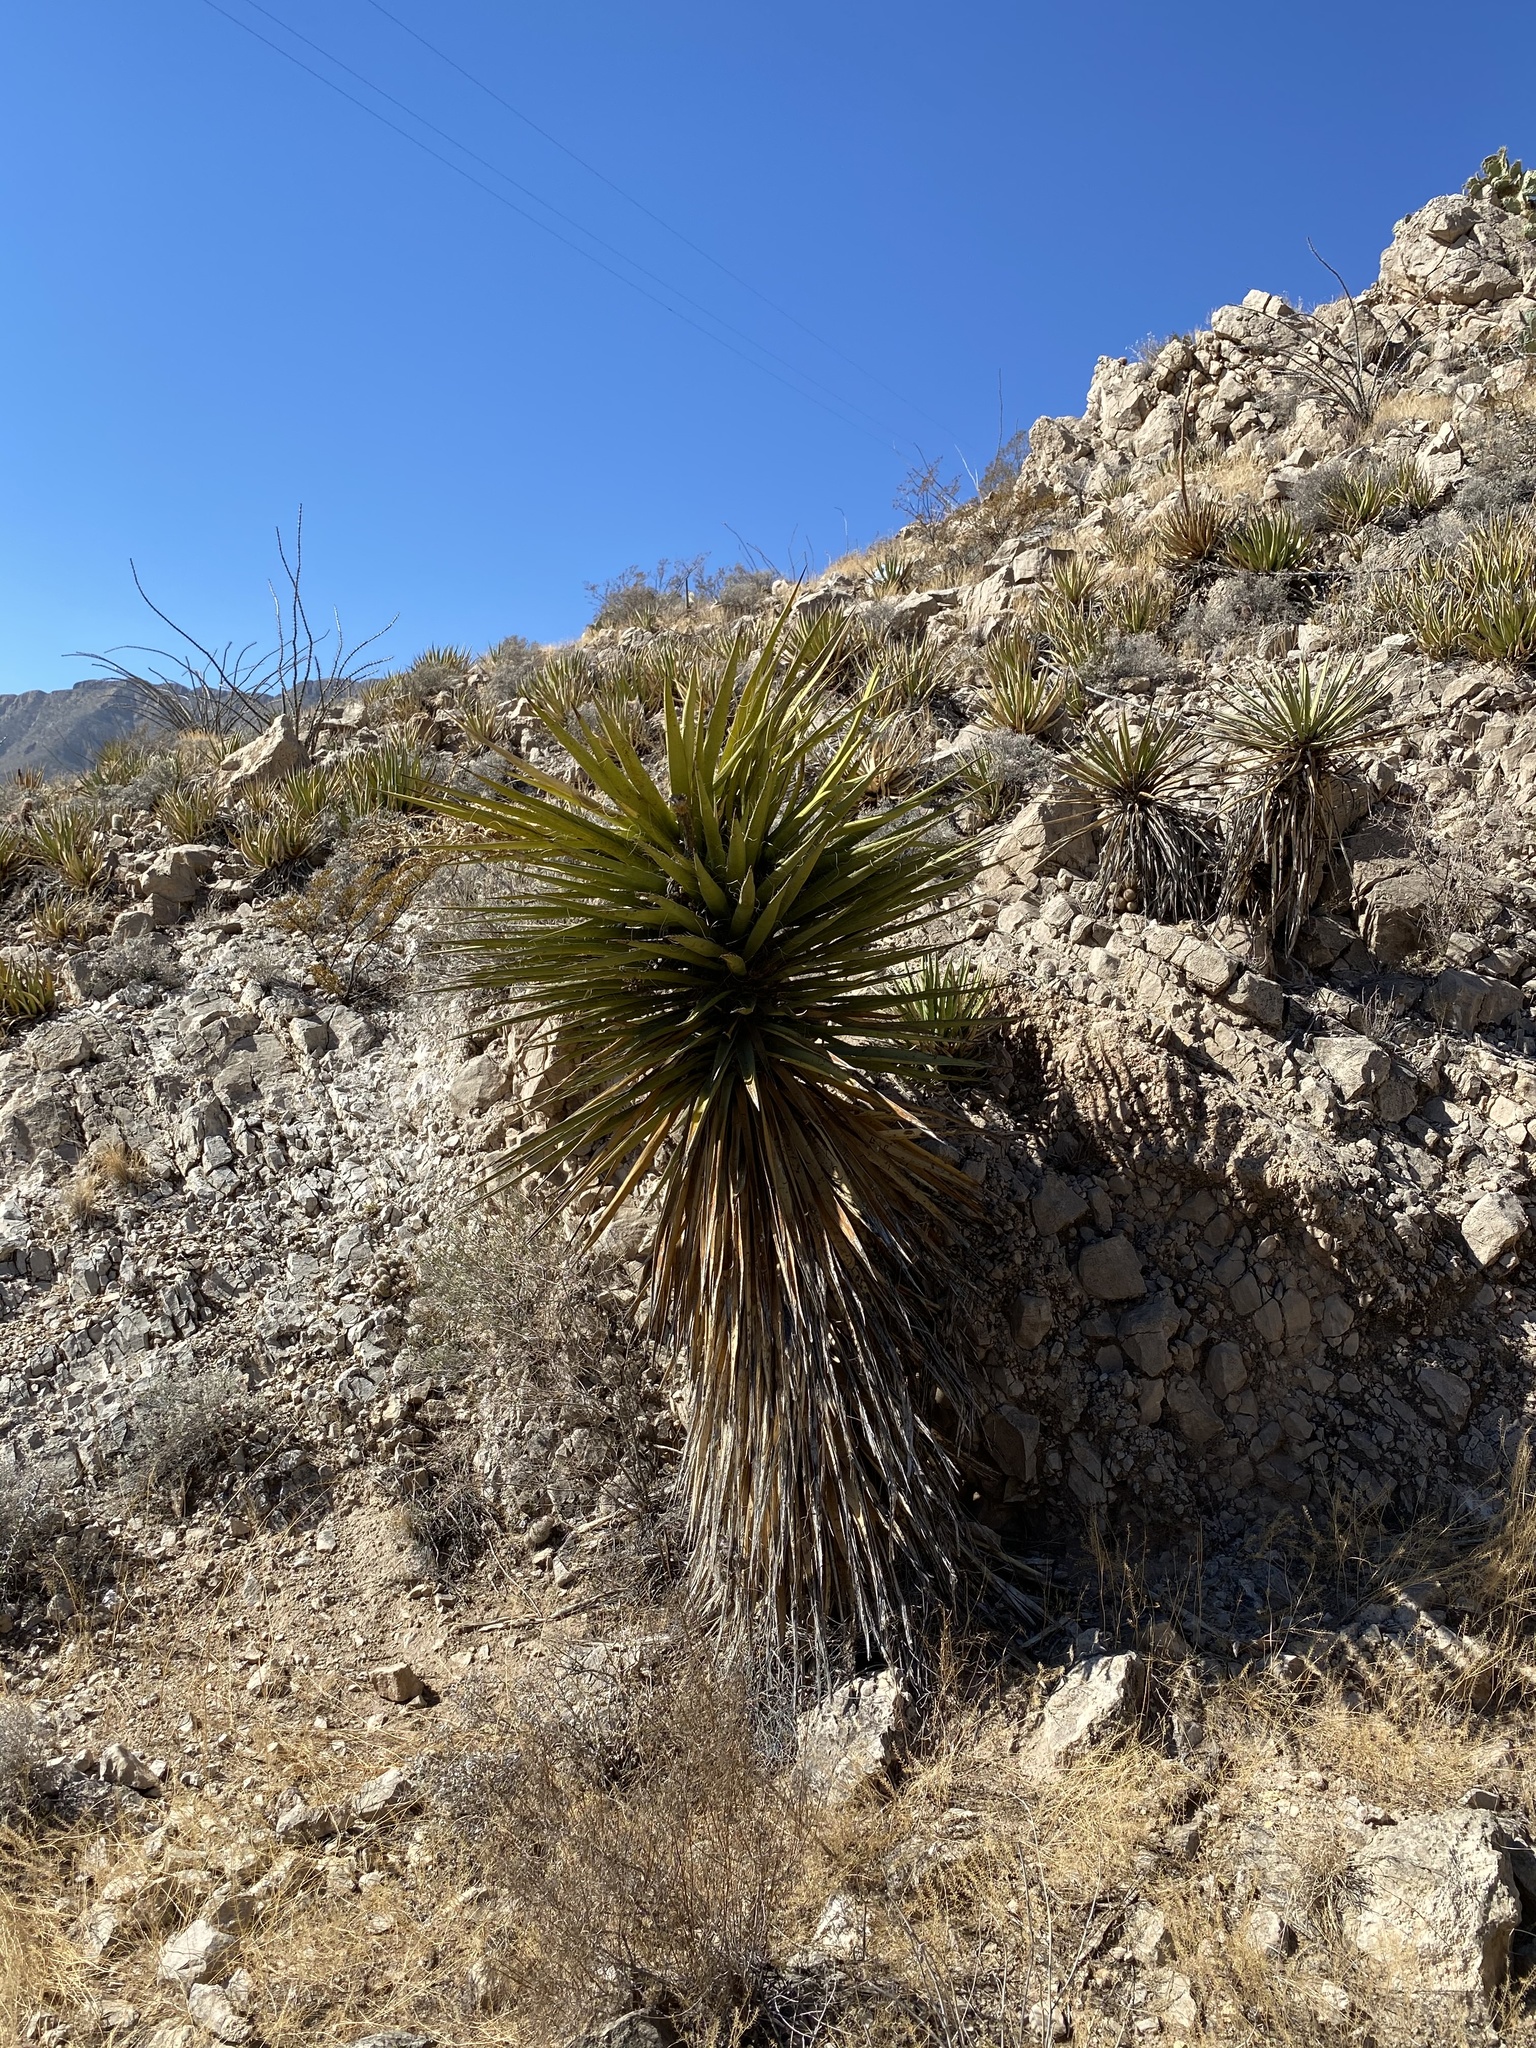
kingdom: Plantae
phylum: Tracheophyta
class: Liliopsida
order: Asparagales
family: Asparagaceae
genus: Yucca
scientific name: Yucca treculiana
